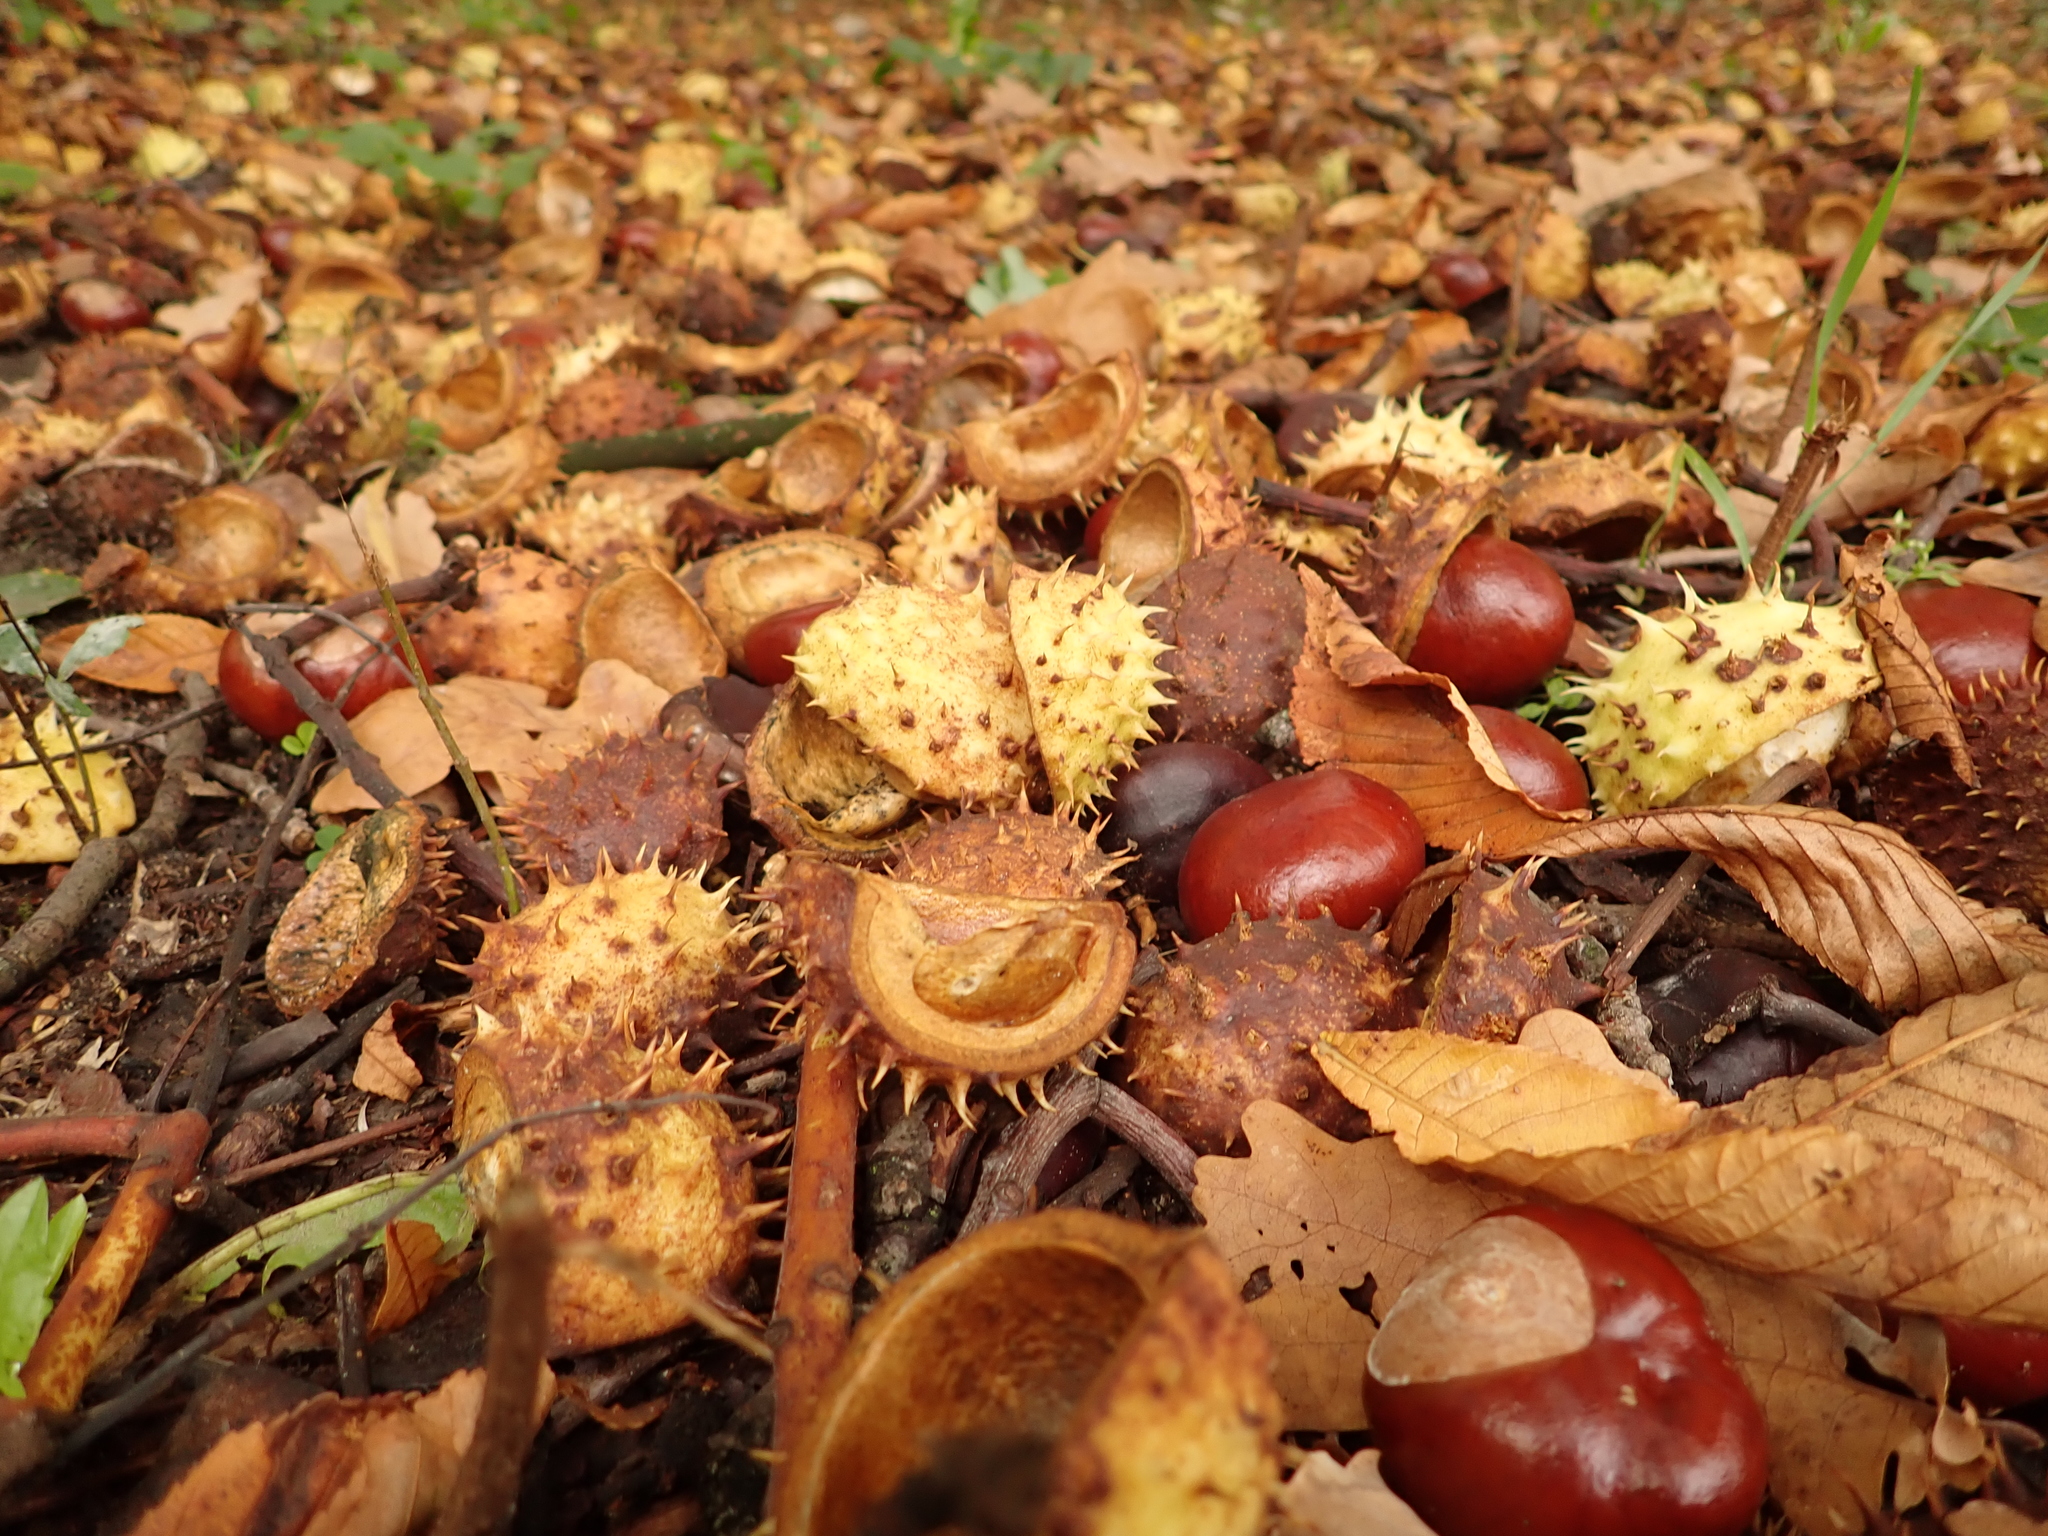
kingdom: Plantae
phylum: Tracheophyta
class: Magnoliopsida
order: Sapindales
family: Sapindaceae
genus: Aesculus
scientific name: Aesculus hippocastanum
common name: Horse-chestnut
